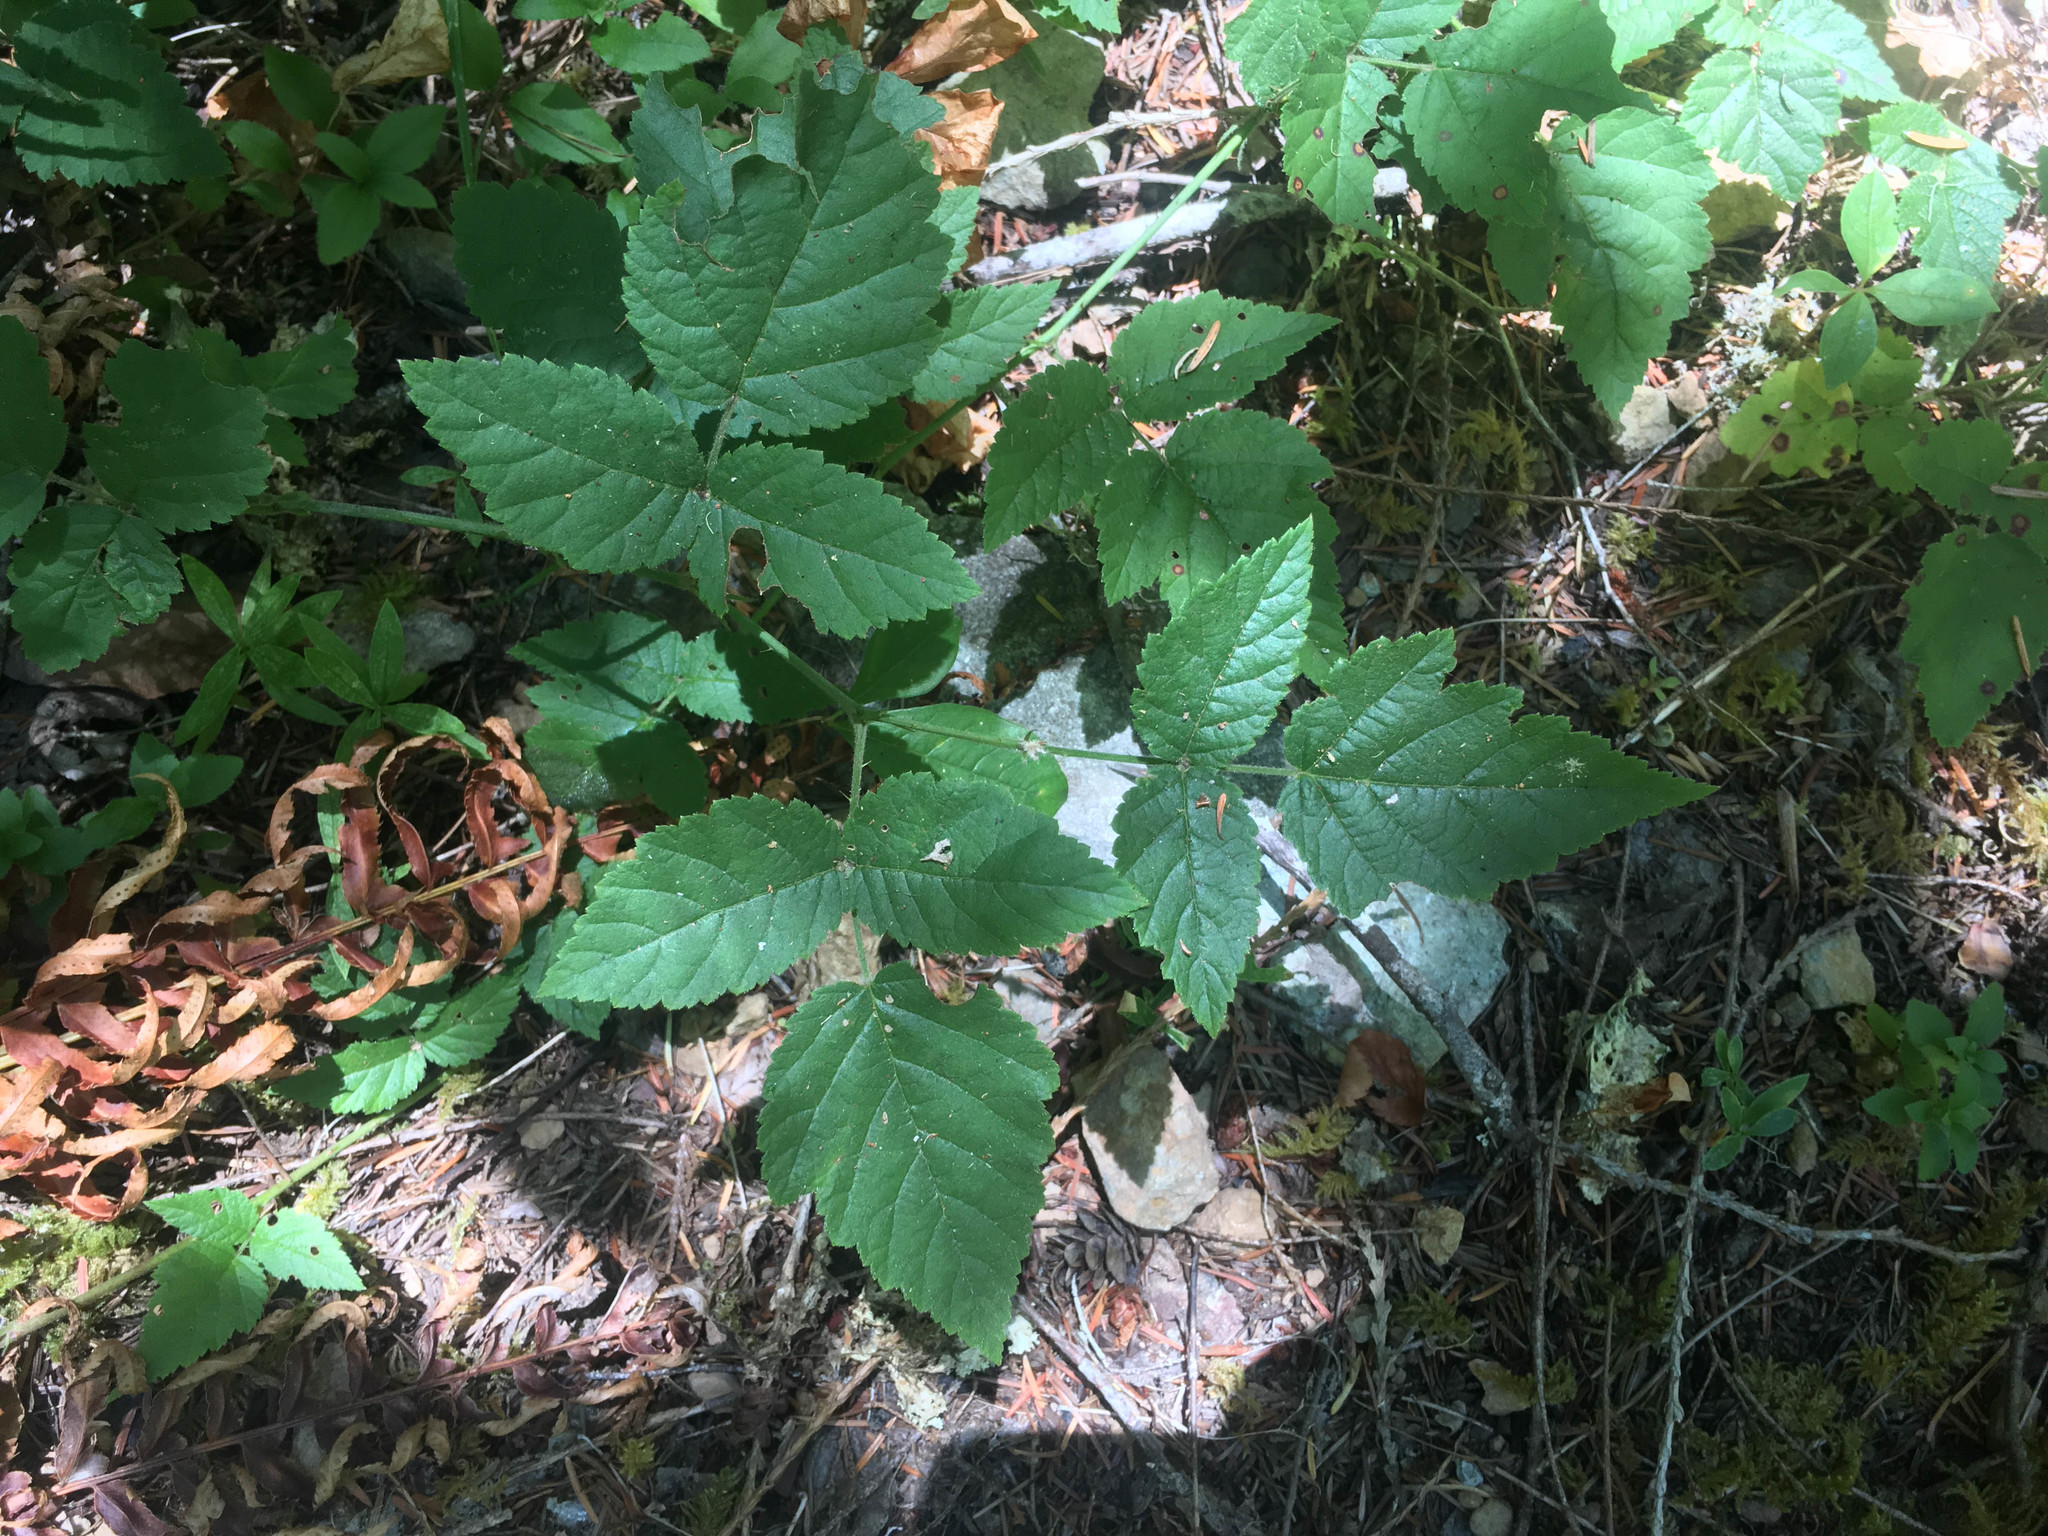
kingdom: Plantae
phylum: Tracheophyta
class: Magnoliopsida
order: Rosales
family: Rosaceae
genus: Rubus
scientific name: Rubus ursinus
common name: Pacific blackberry
